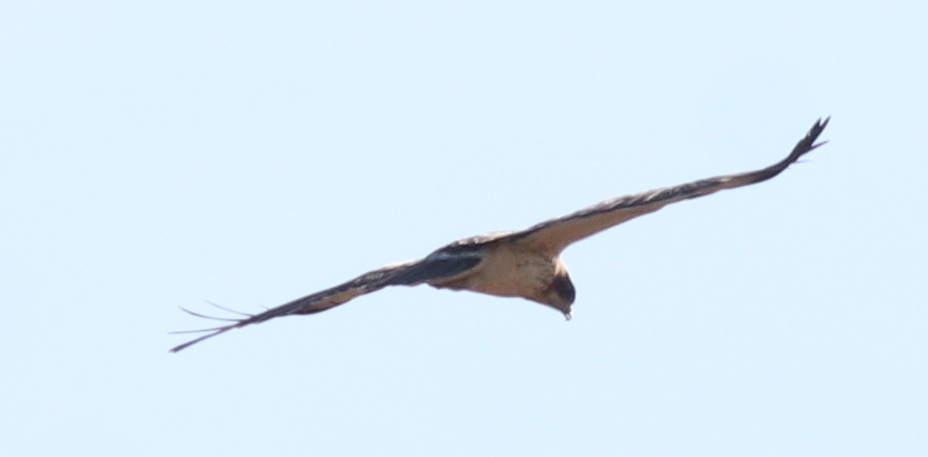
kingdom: Animalia
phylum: Chordata
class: Aves
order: Accipitriformes
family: Accipitridae
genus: Hieraaetus
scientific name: Hieraaetus pennatus
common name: Booted eagle
